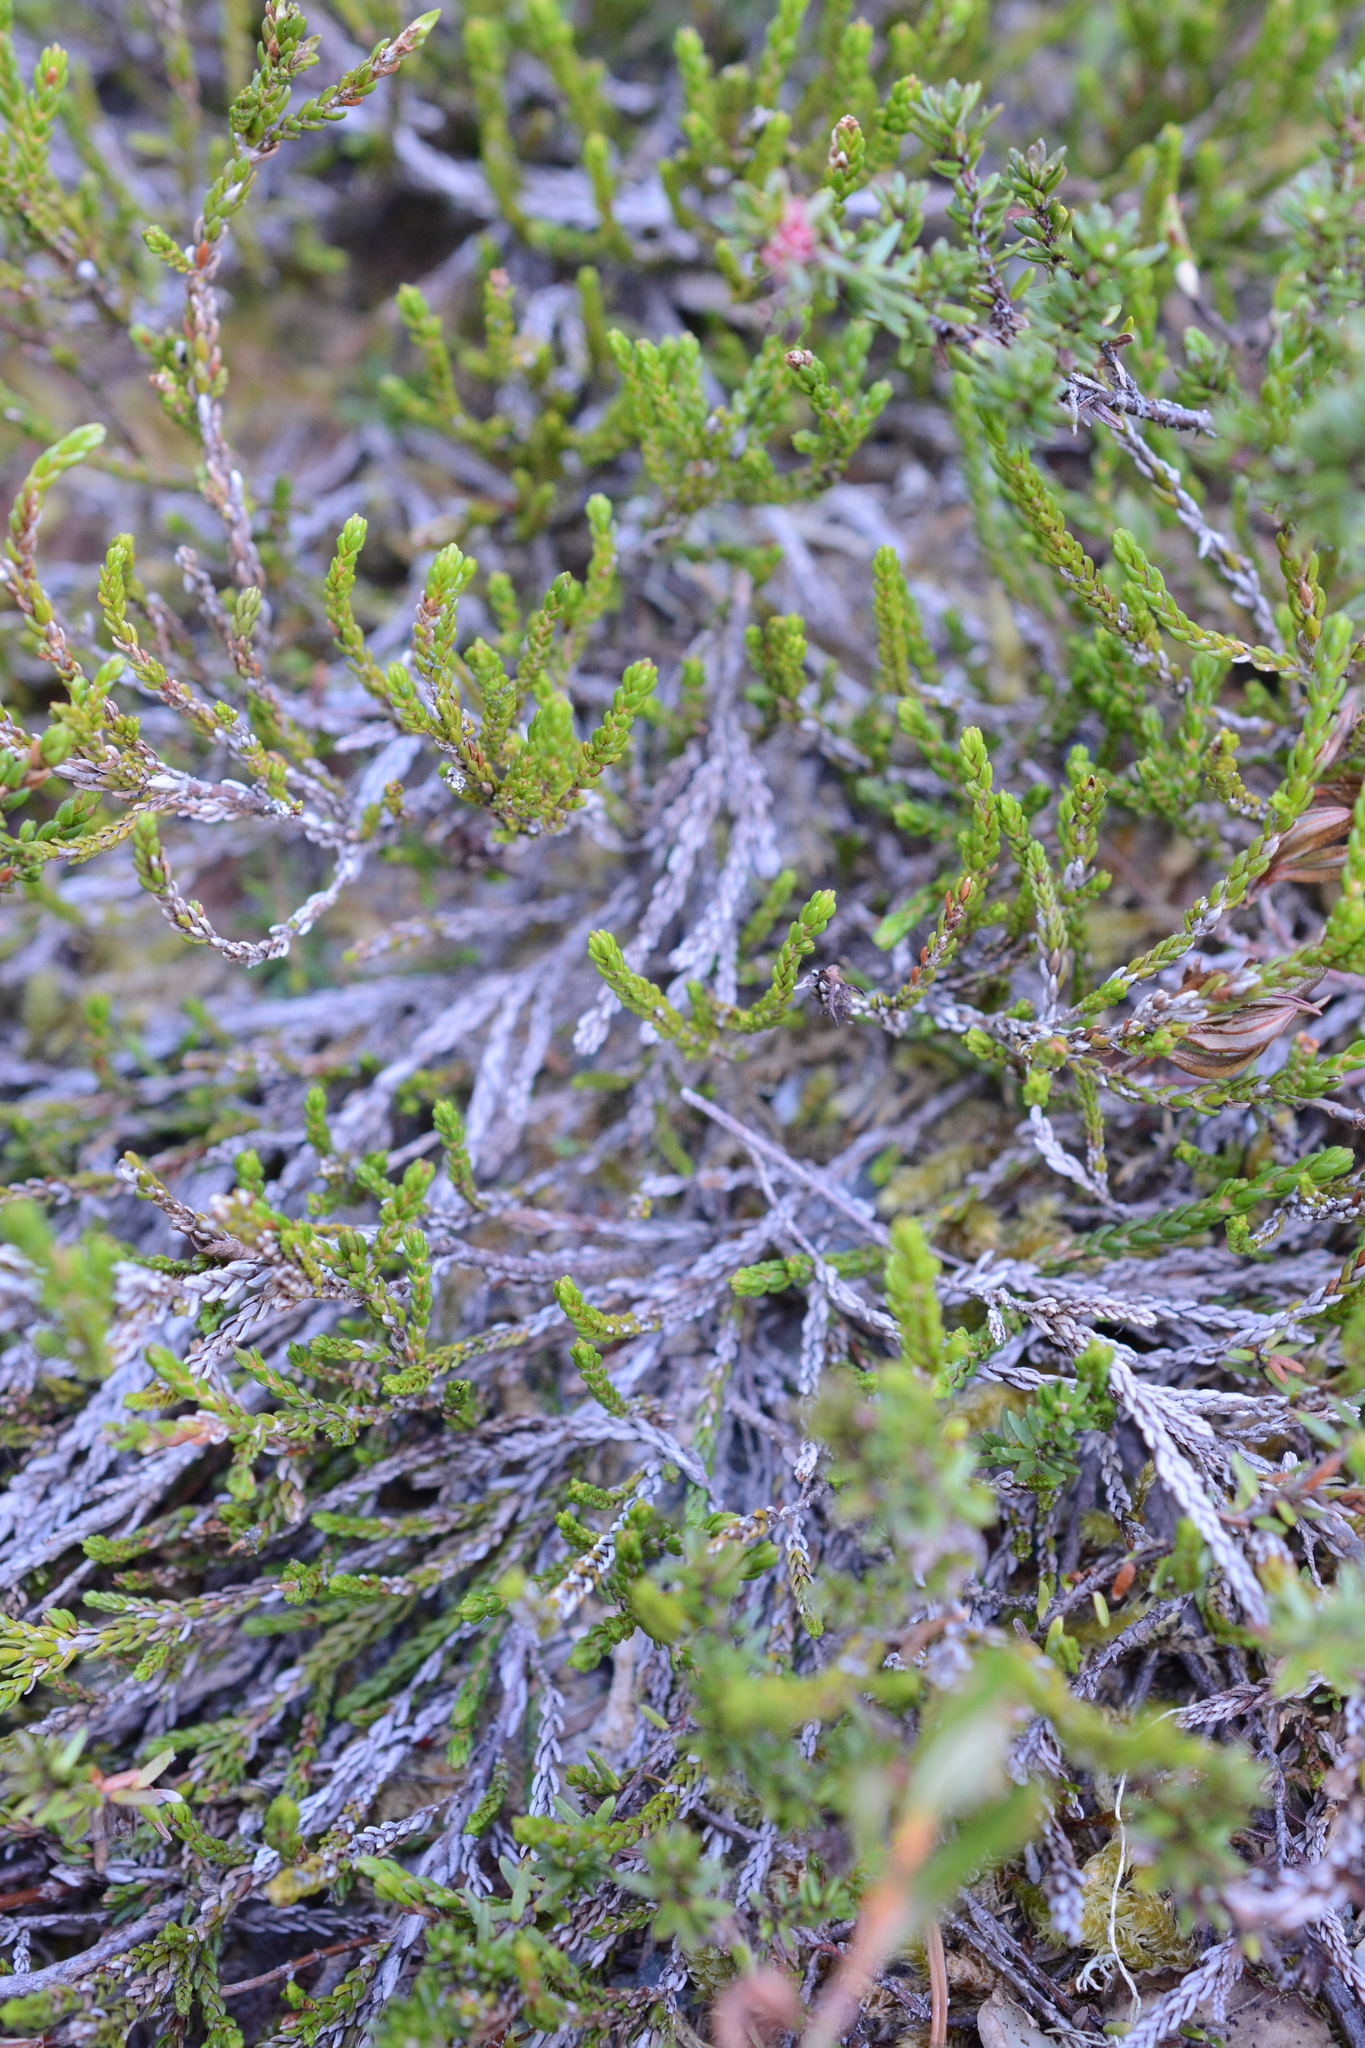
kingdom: Plantae
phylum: Tracheophyta
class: Magnoliopsida
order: Ericales
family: Ericaceae
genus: Cassiope
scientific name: Cassiope mertensiana
